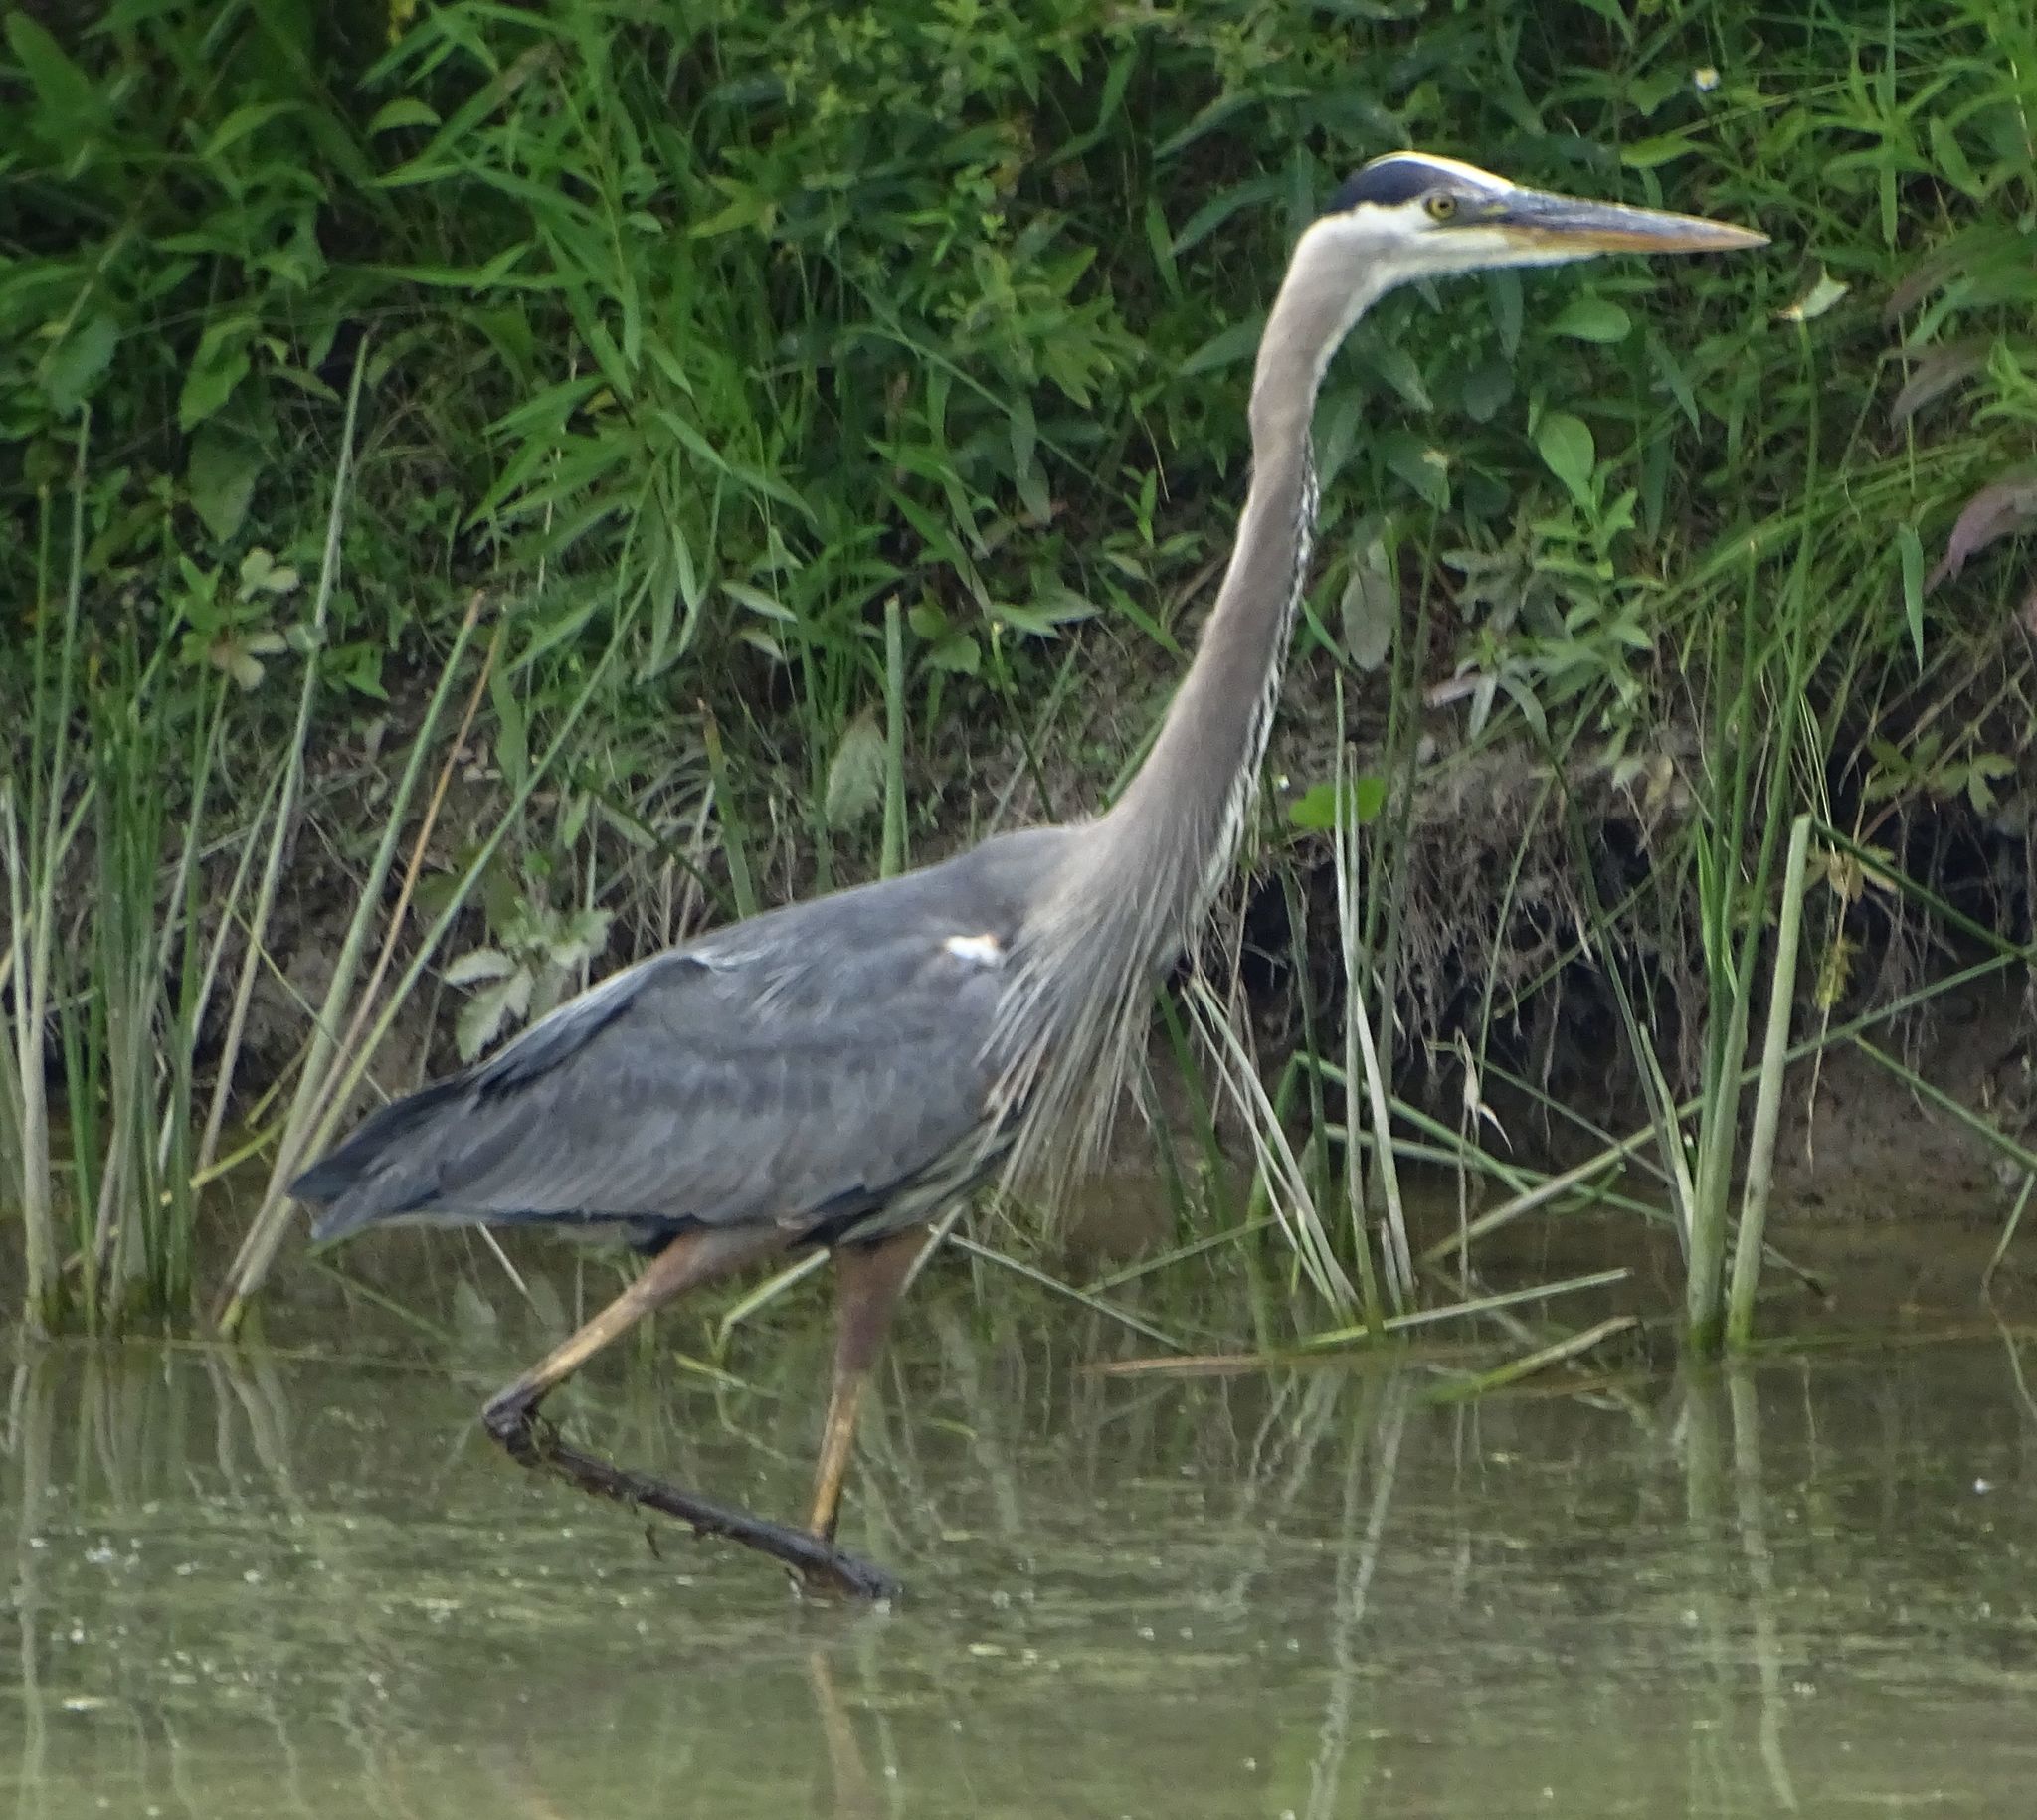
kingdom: Animalia
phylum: Chordata
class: Aves
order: Pelecaniformes
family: Ardeidae
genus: Ardea
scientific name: Ardea herodias
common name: Great blue heron
